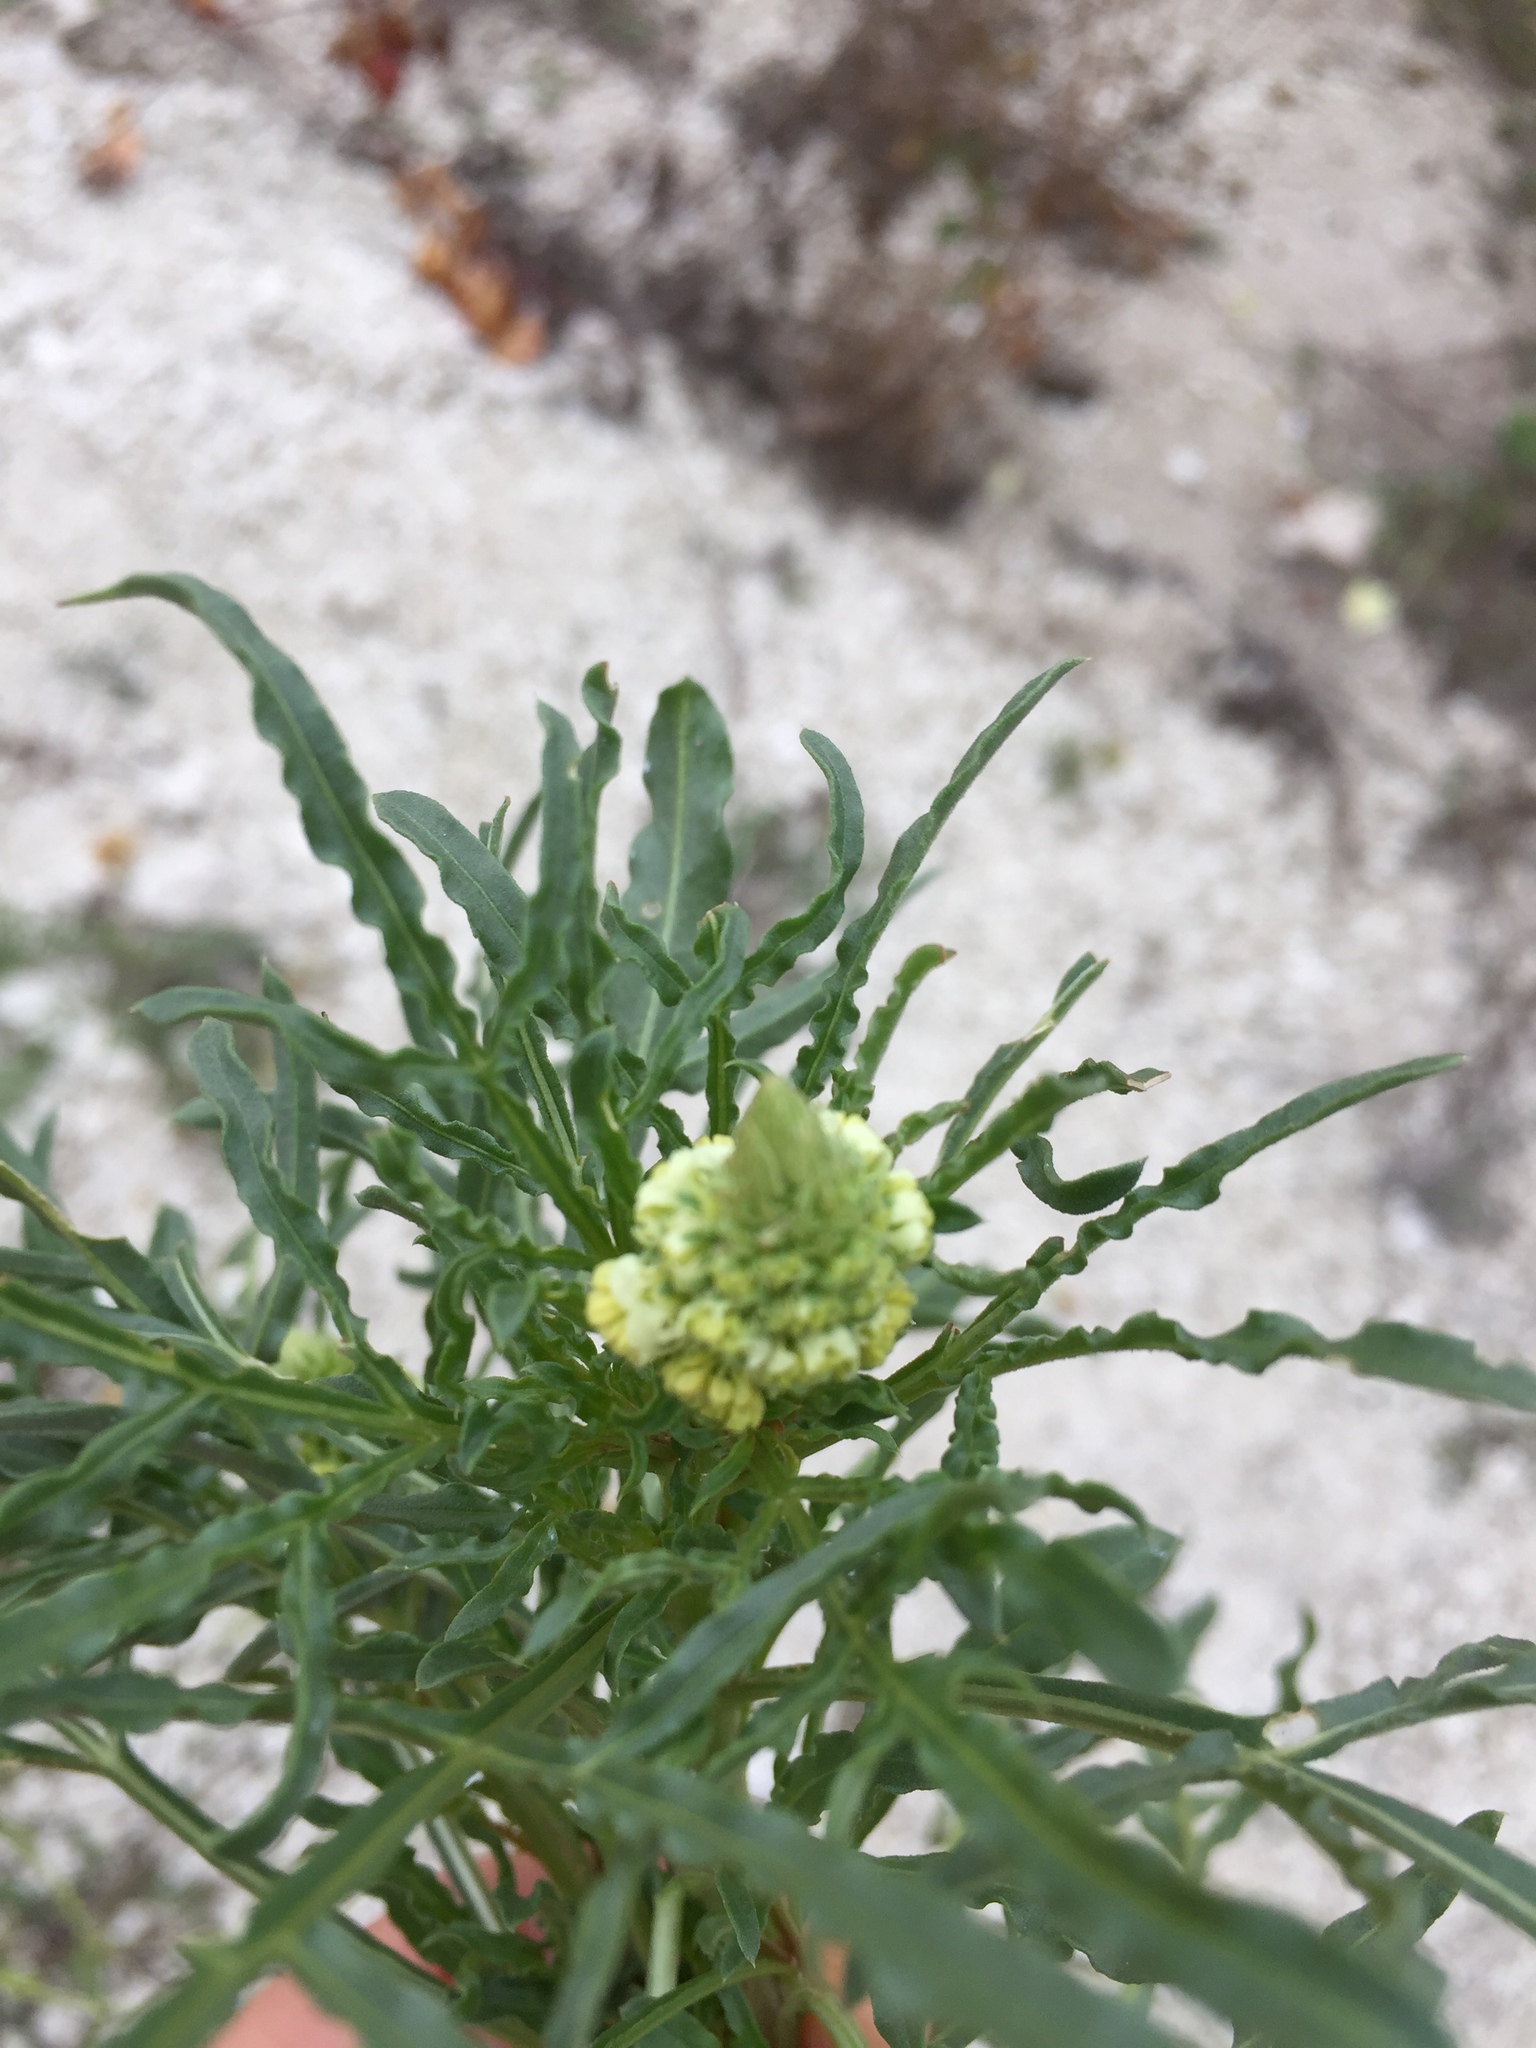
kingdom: Plantae
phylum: Tracheophyta
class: Magnoliopsida
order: Brassicales
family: Resedaceae
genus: Reseda
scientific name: Reseda lutea
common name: Wild mignonette
